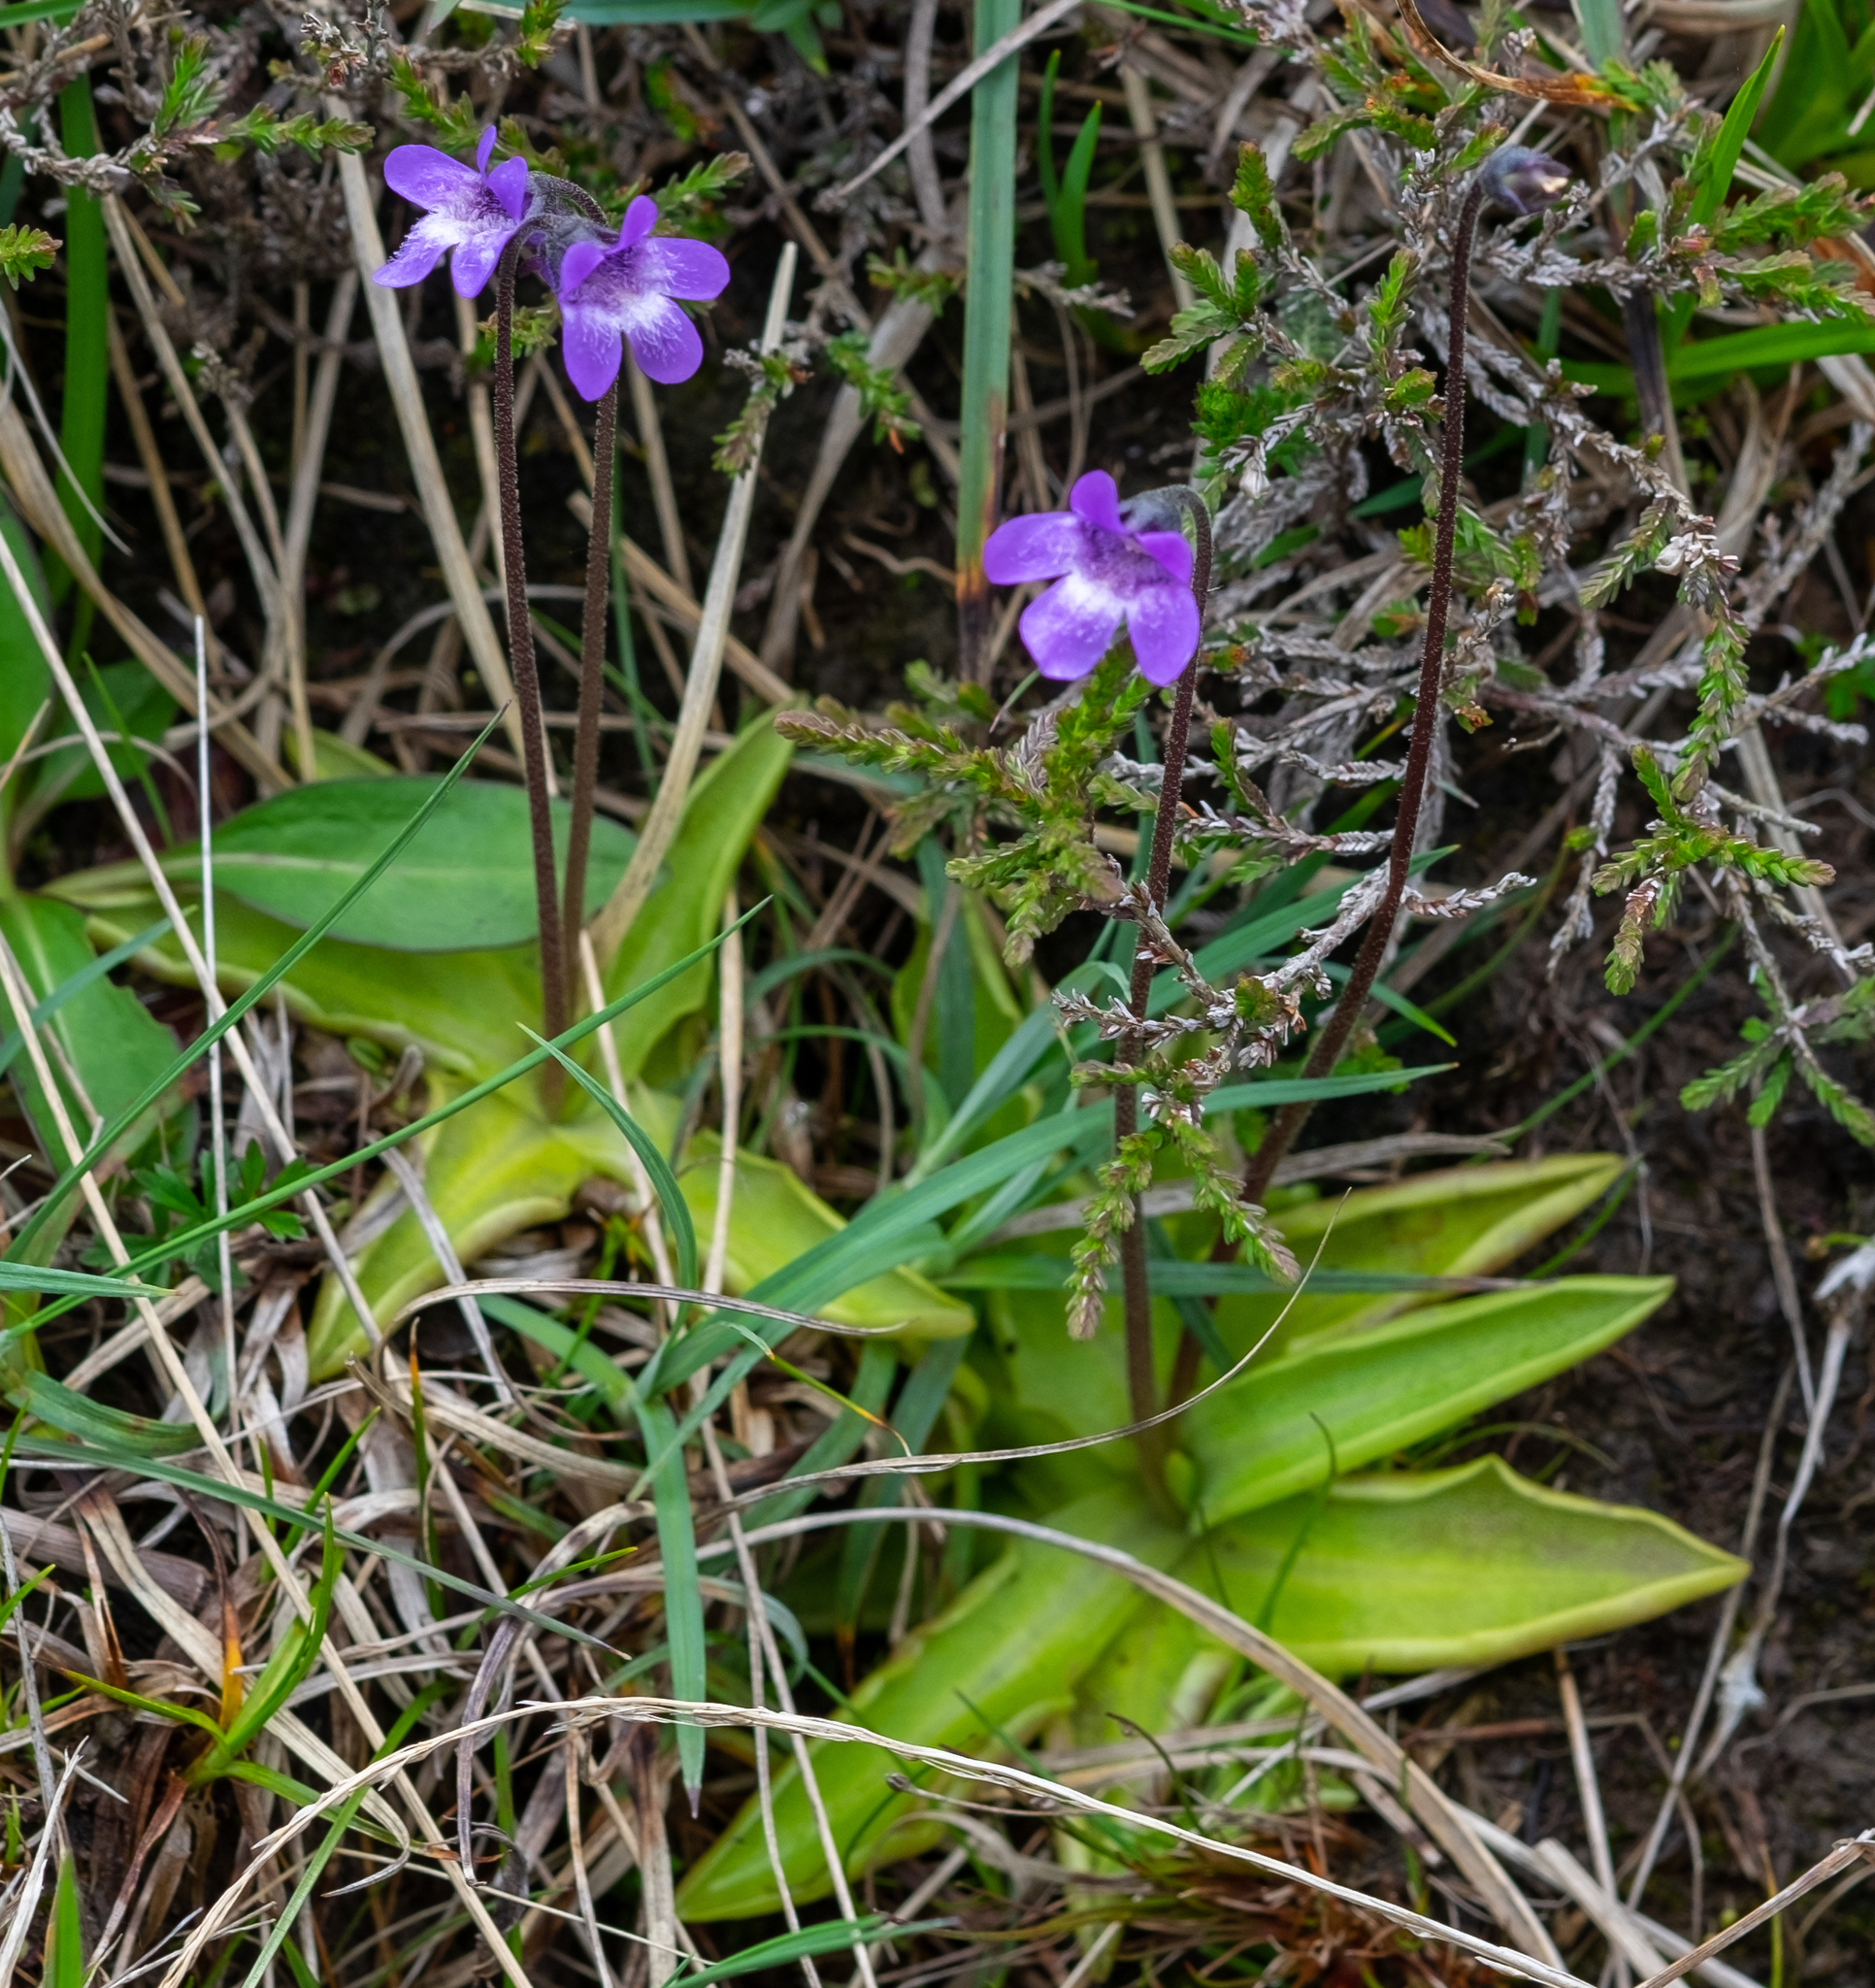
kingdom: Plantae
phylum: Tracheophyta
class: Magnoliopsida
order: Lamiales
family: Lentibulariaceae
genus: Pinguicula
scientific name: Pinguicula vulgaris
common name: Common butterwort
